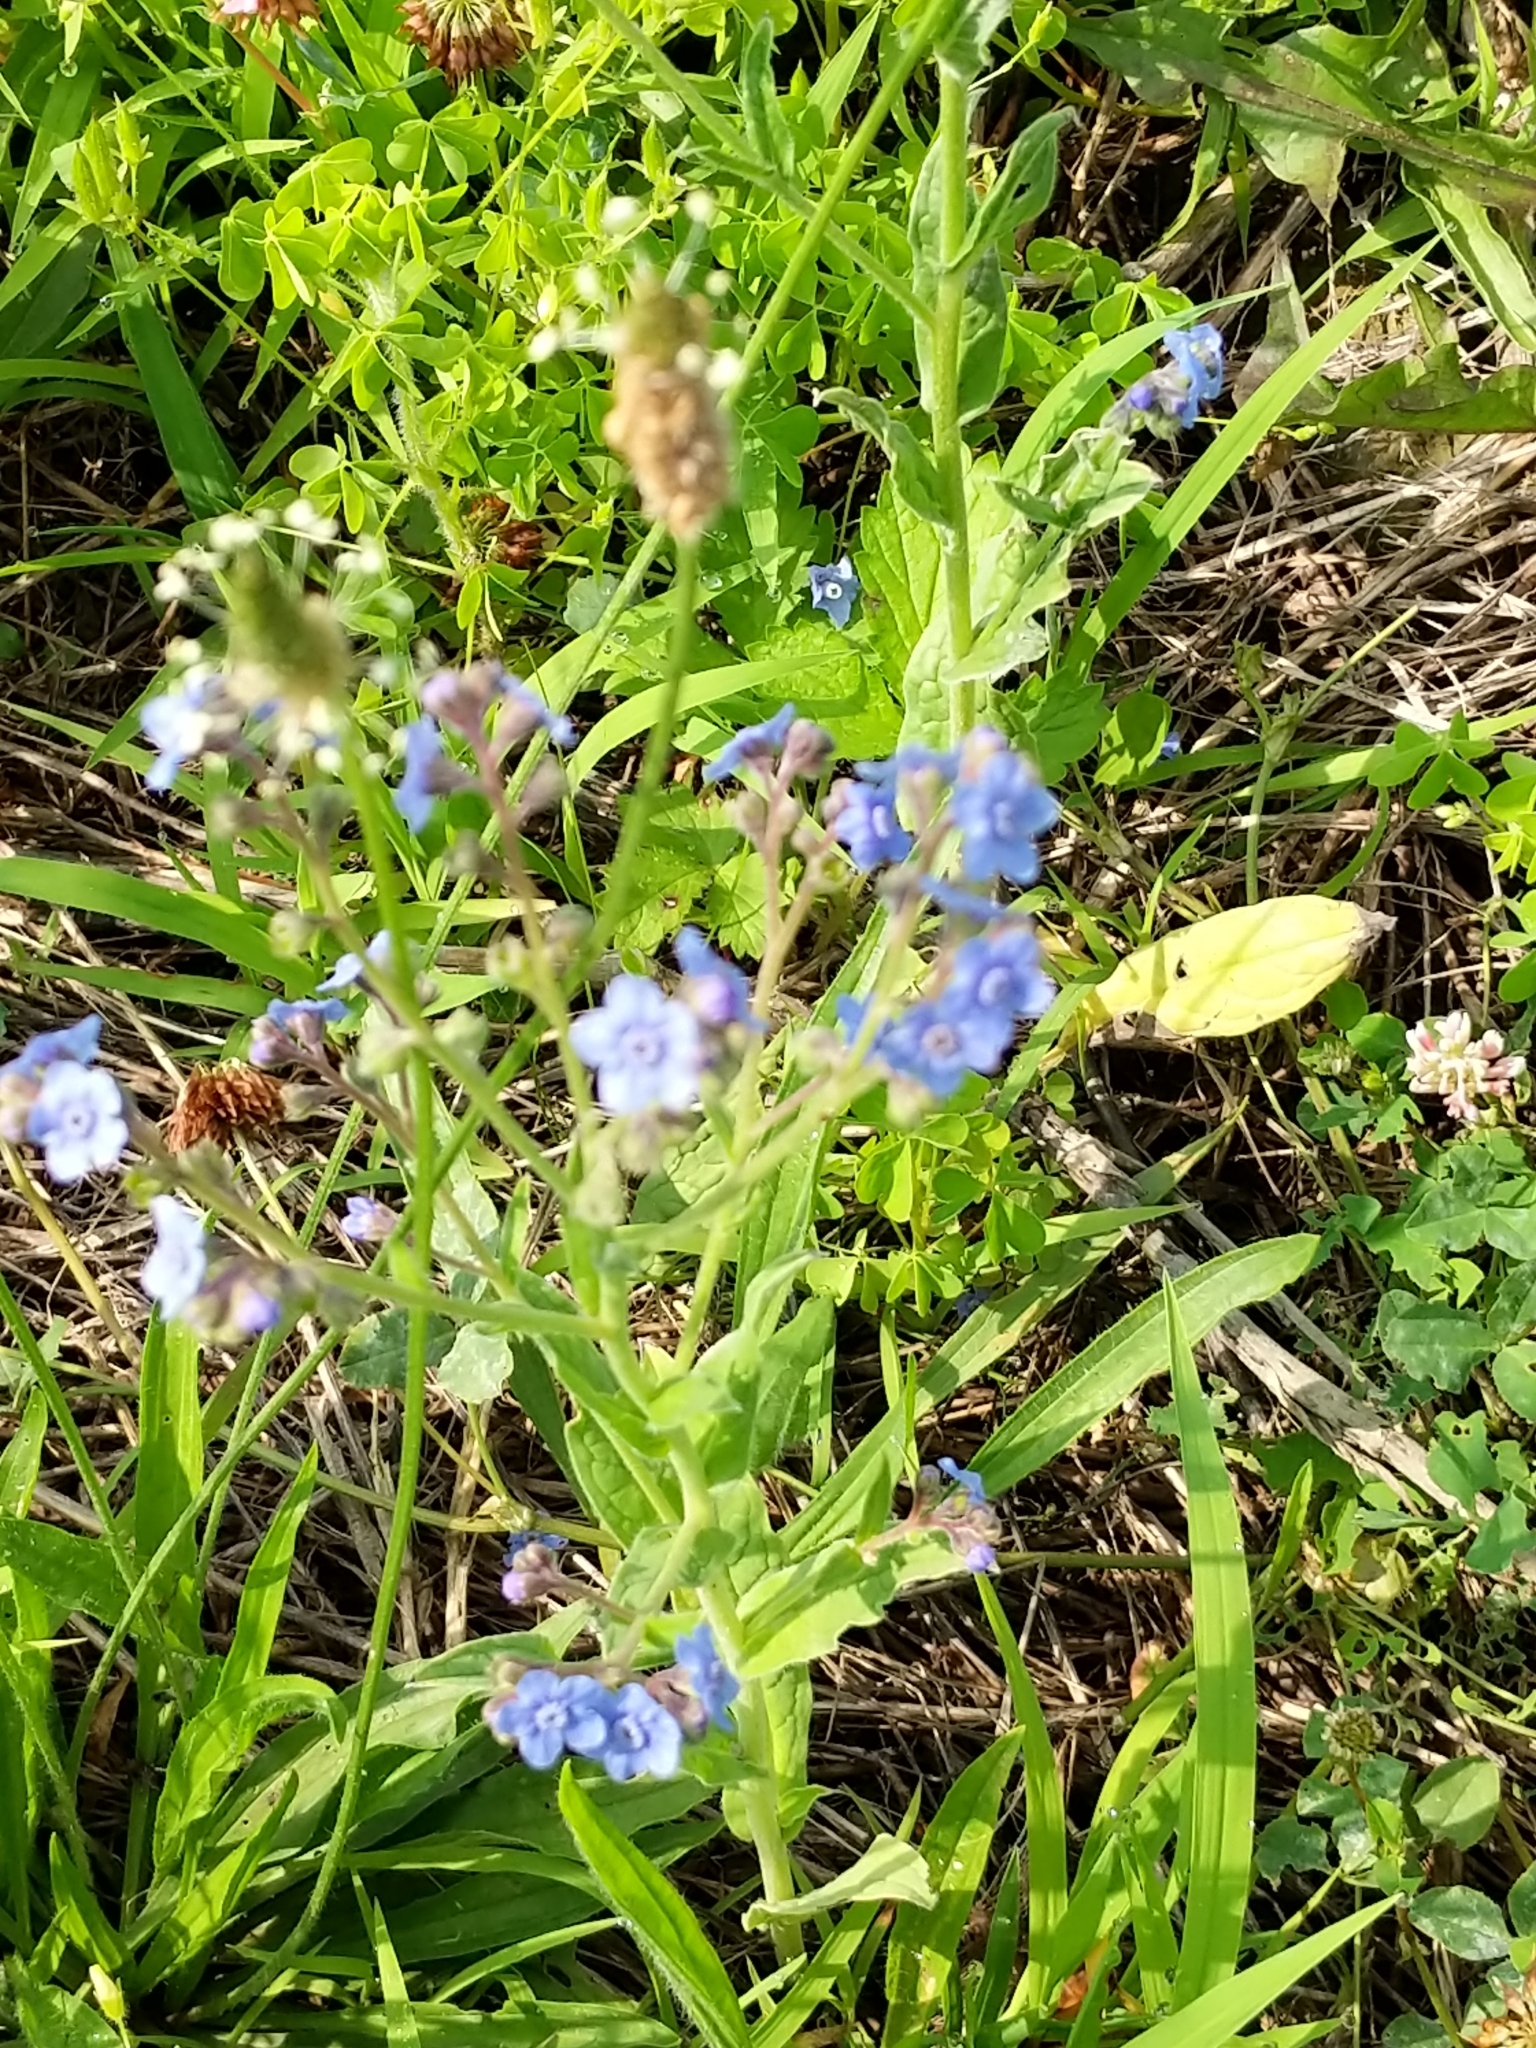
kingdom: Plantae
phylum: Tracheophyta
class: Magnoliopsida
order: Boraginales
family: Boraginaceae
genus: Cynoglossum
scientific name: Cynoglossum amabile
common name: Chinese hound's tongue
